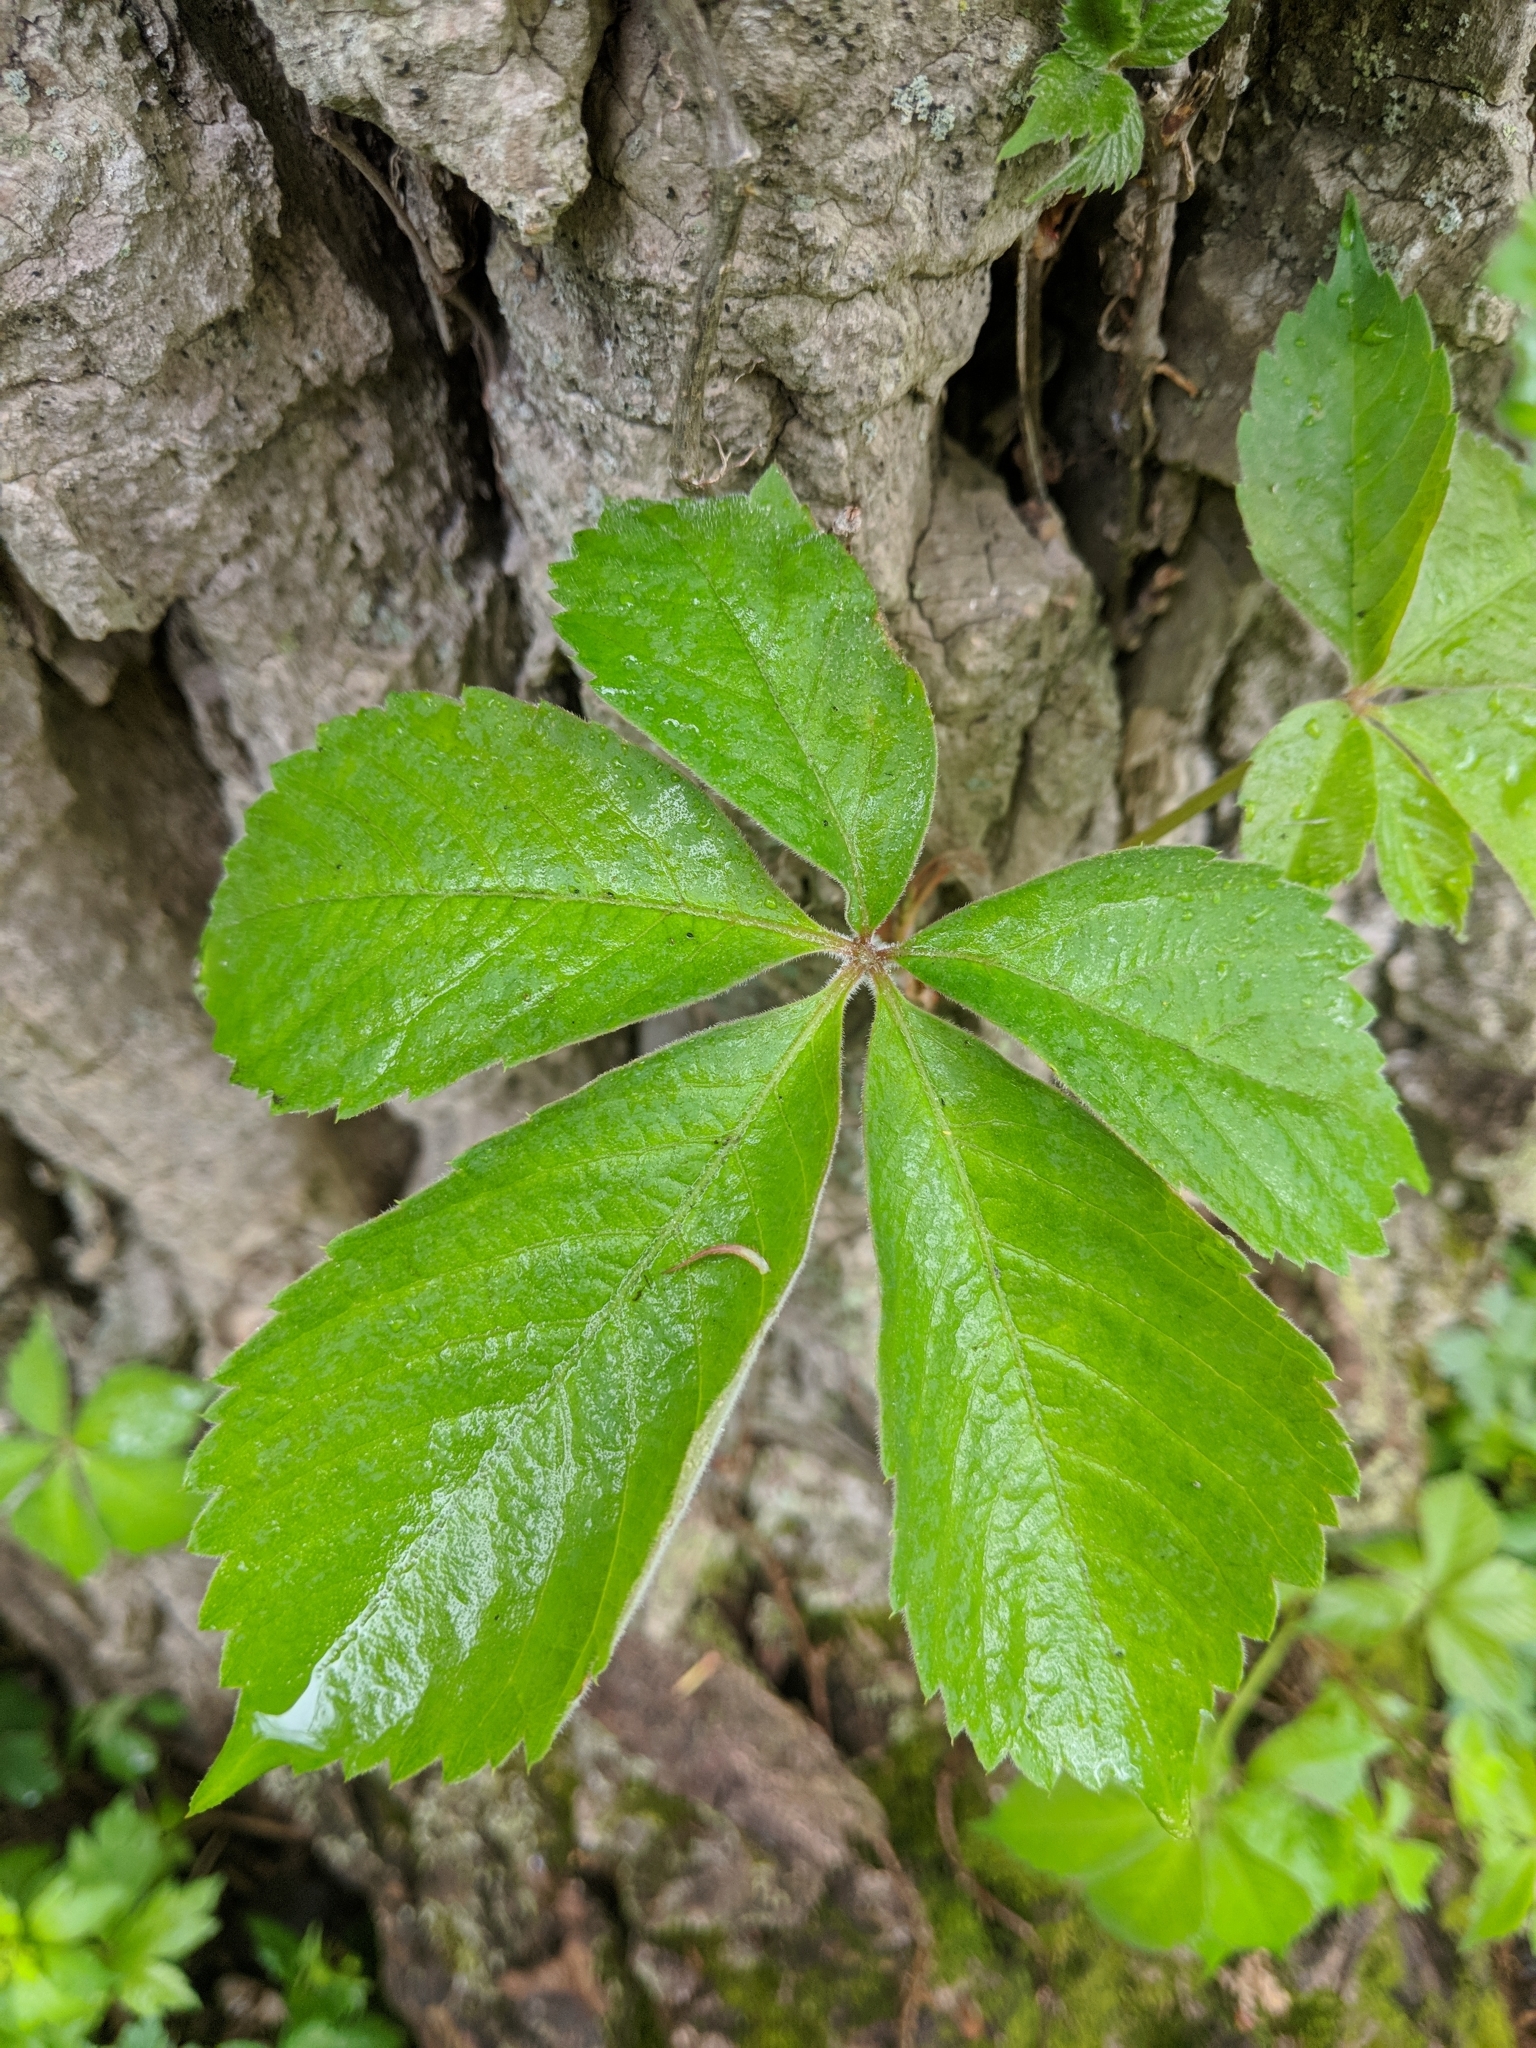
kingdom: Plantae
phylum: Tracheophyta
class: Magnoliopsida
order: Vitales
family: Vitaceae
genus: Parthenocissus
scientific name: Parthenocissus quinquefolia
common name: Virginia-creeper
